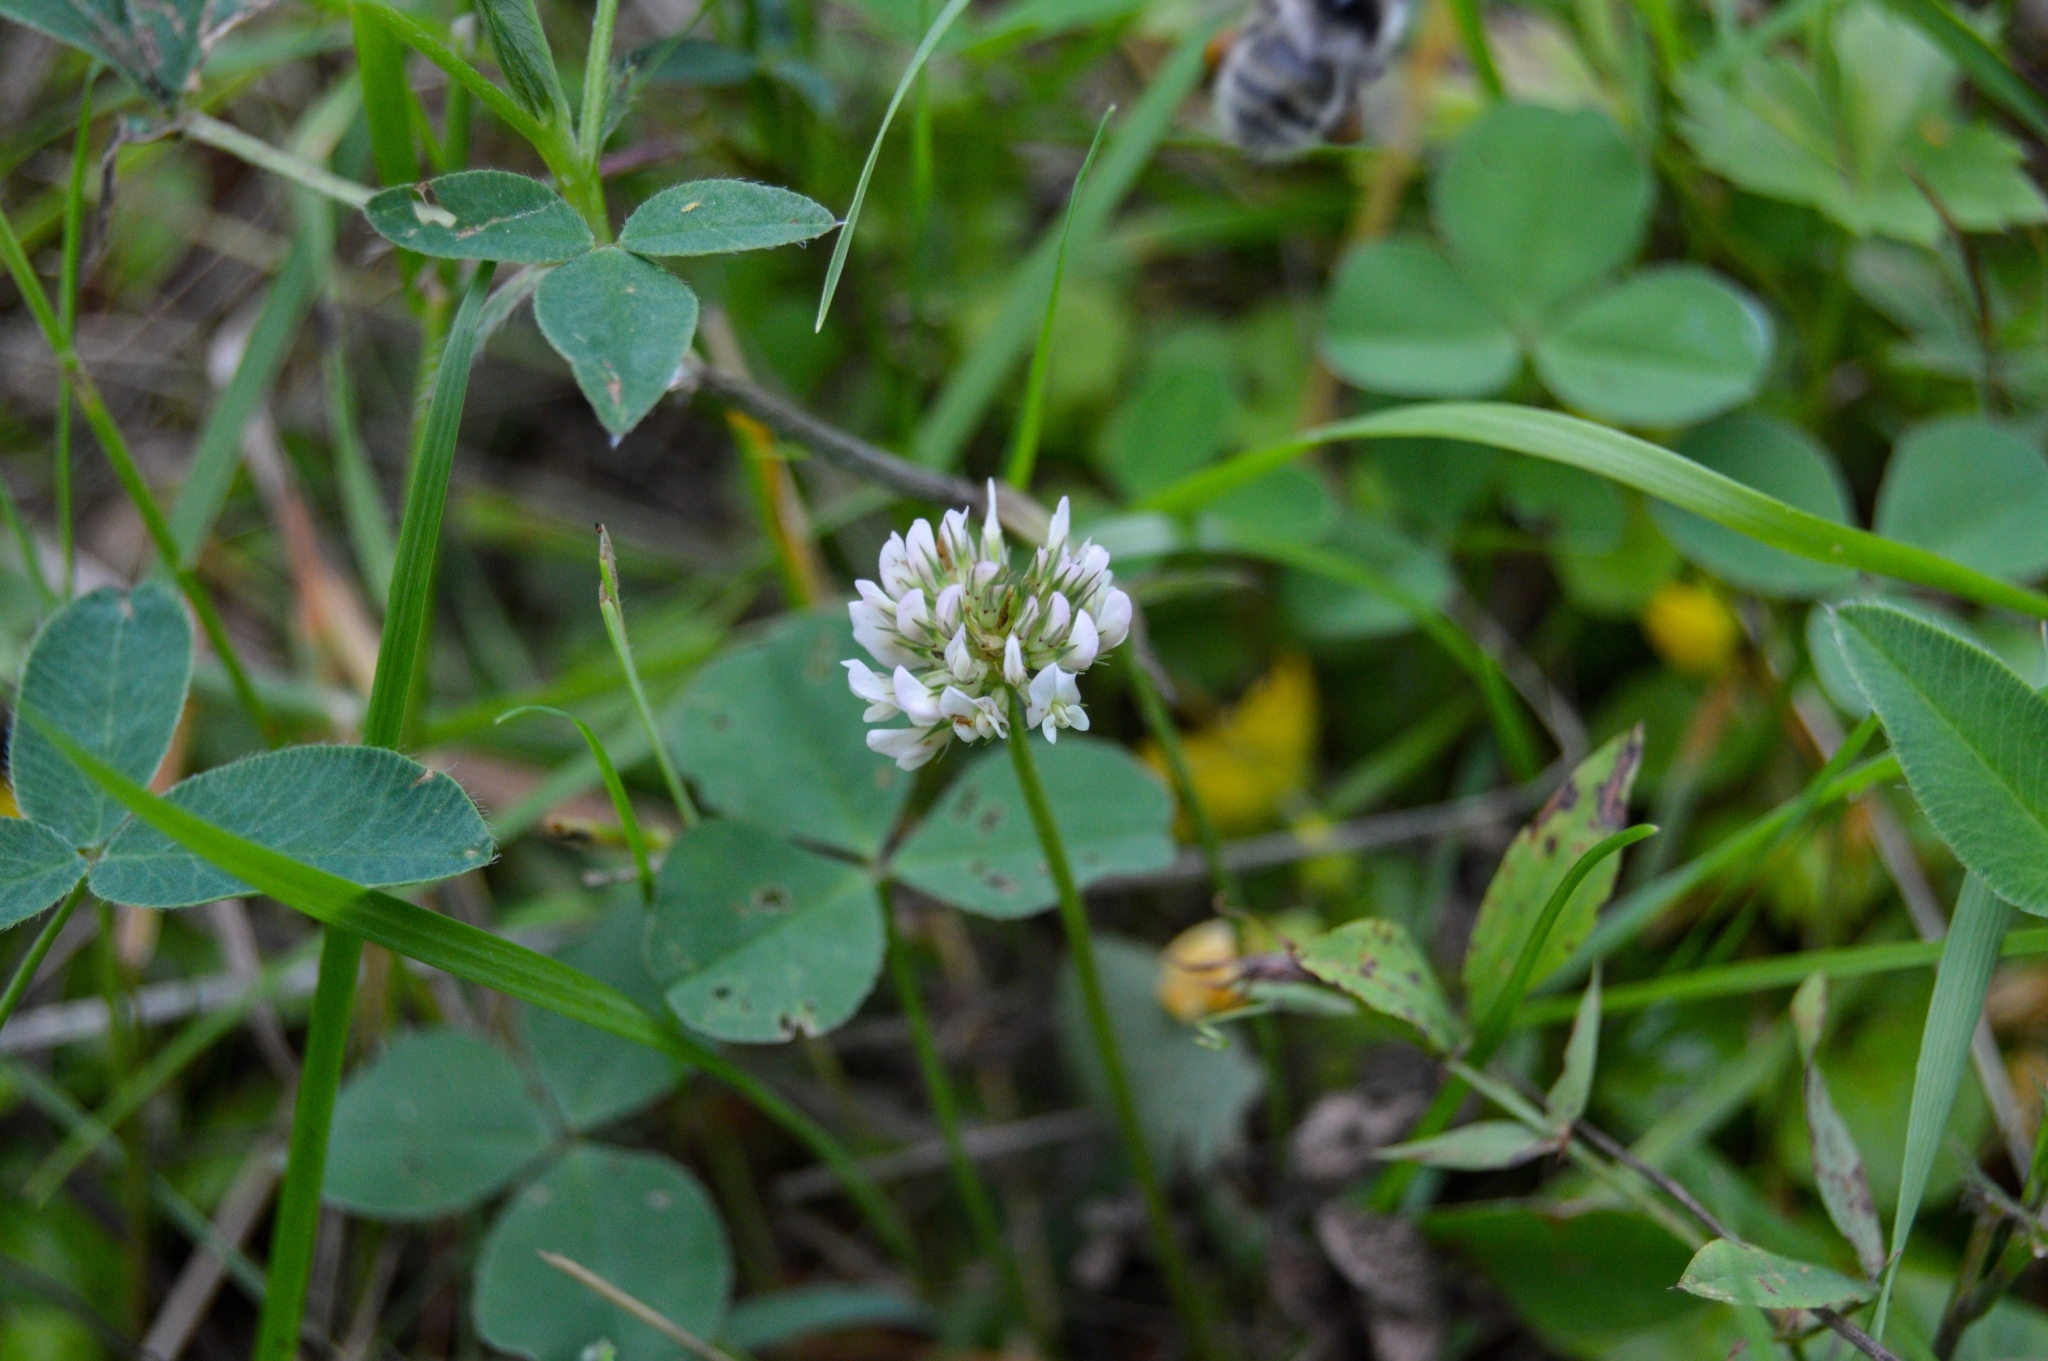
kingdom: Plantae
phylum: Tracheophyta
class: Magnoliopsida
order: Fabales
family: Fabaceae
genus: Trifolium
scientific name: Trifolium repens
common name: White clover
